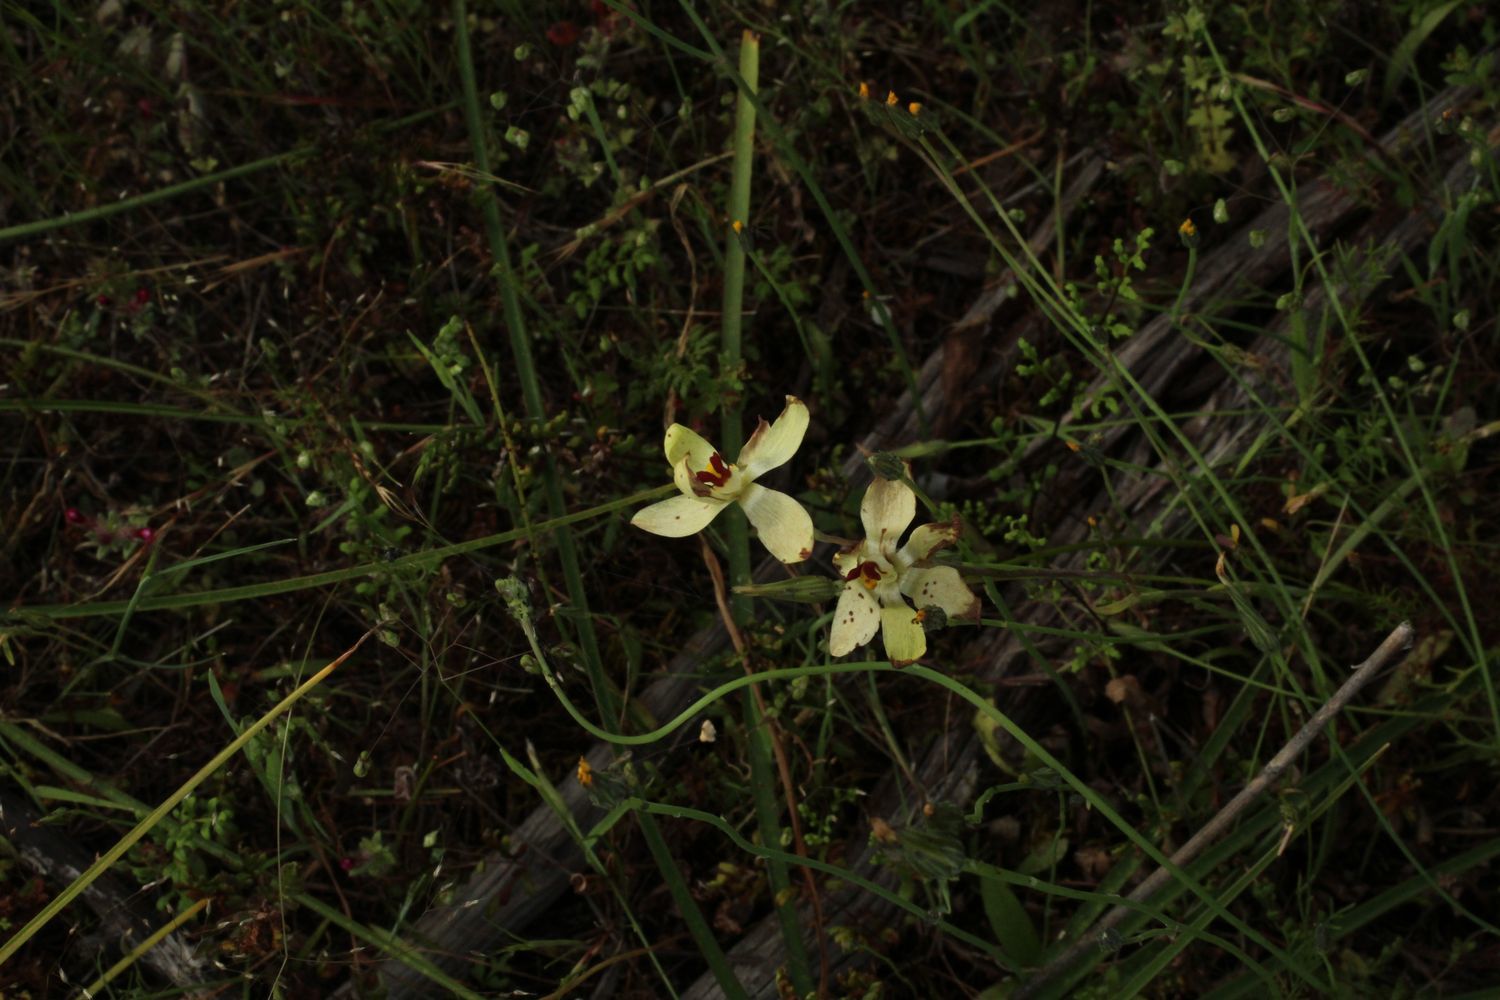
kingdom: Plantae
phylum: Tracheophyta
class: Liliopsida
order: Asparagales
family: Orchidaceae
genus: Thelymitra
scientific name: Thelymitra antennifera
